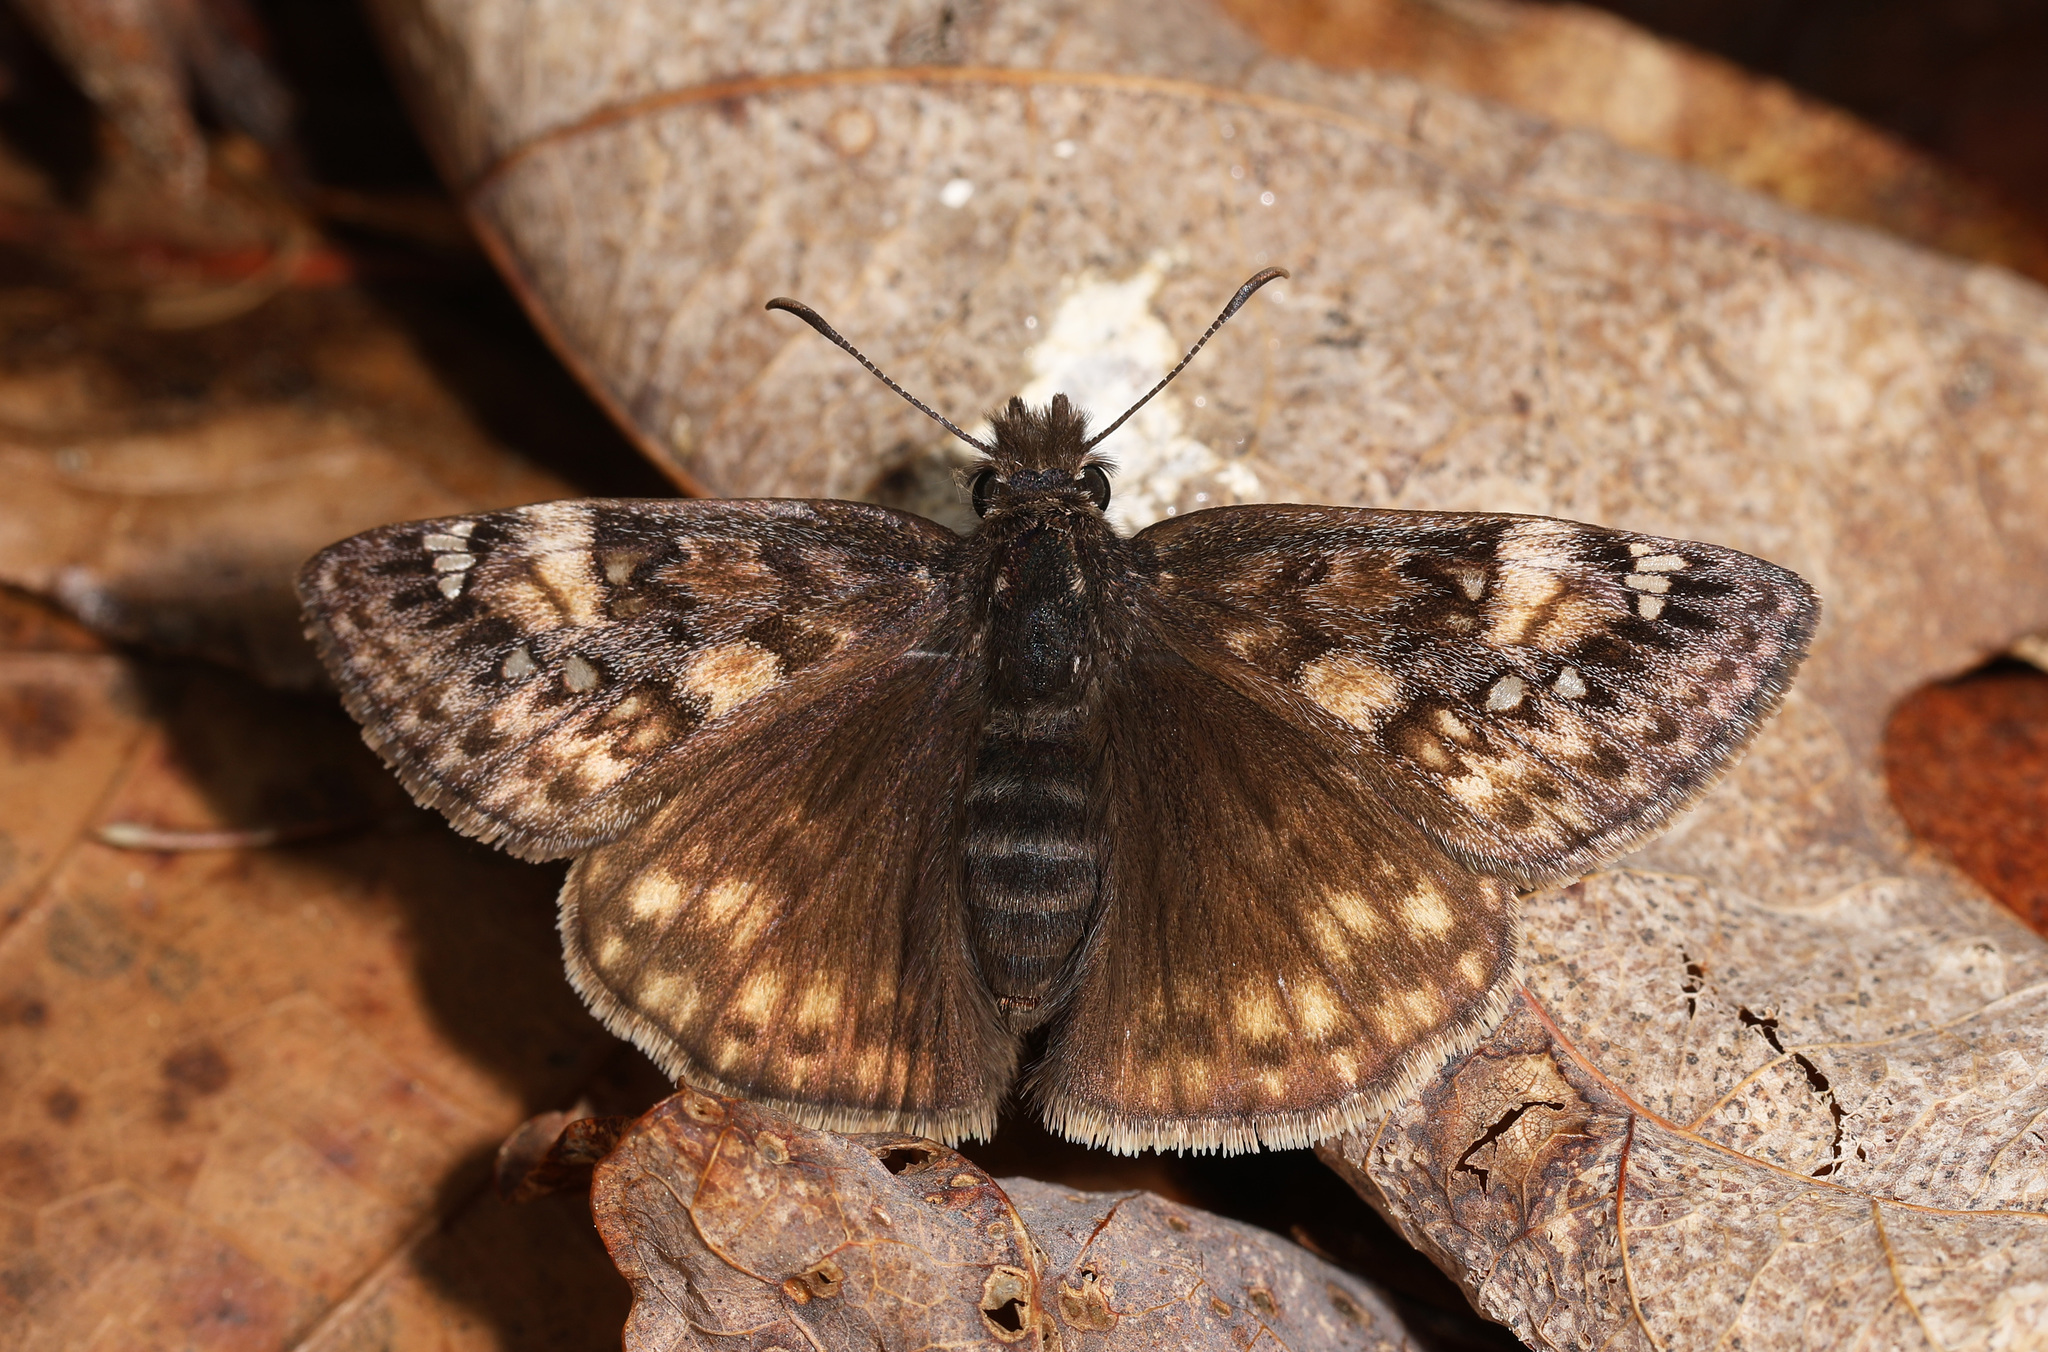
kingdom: Animalia
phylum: Arthropoda
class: Insecta
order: Lepidoptera
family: Hesperiidae
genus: Erynnis
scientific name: Erynnis juvenalis
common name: Juvenal's duskywing
